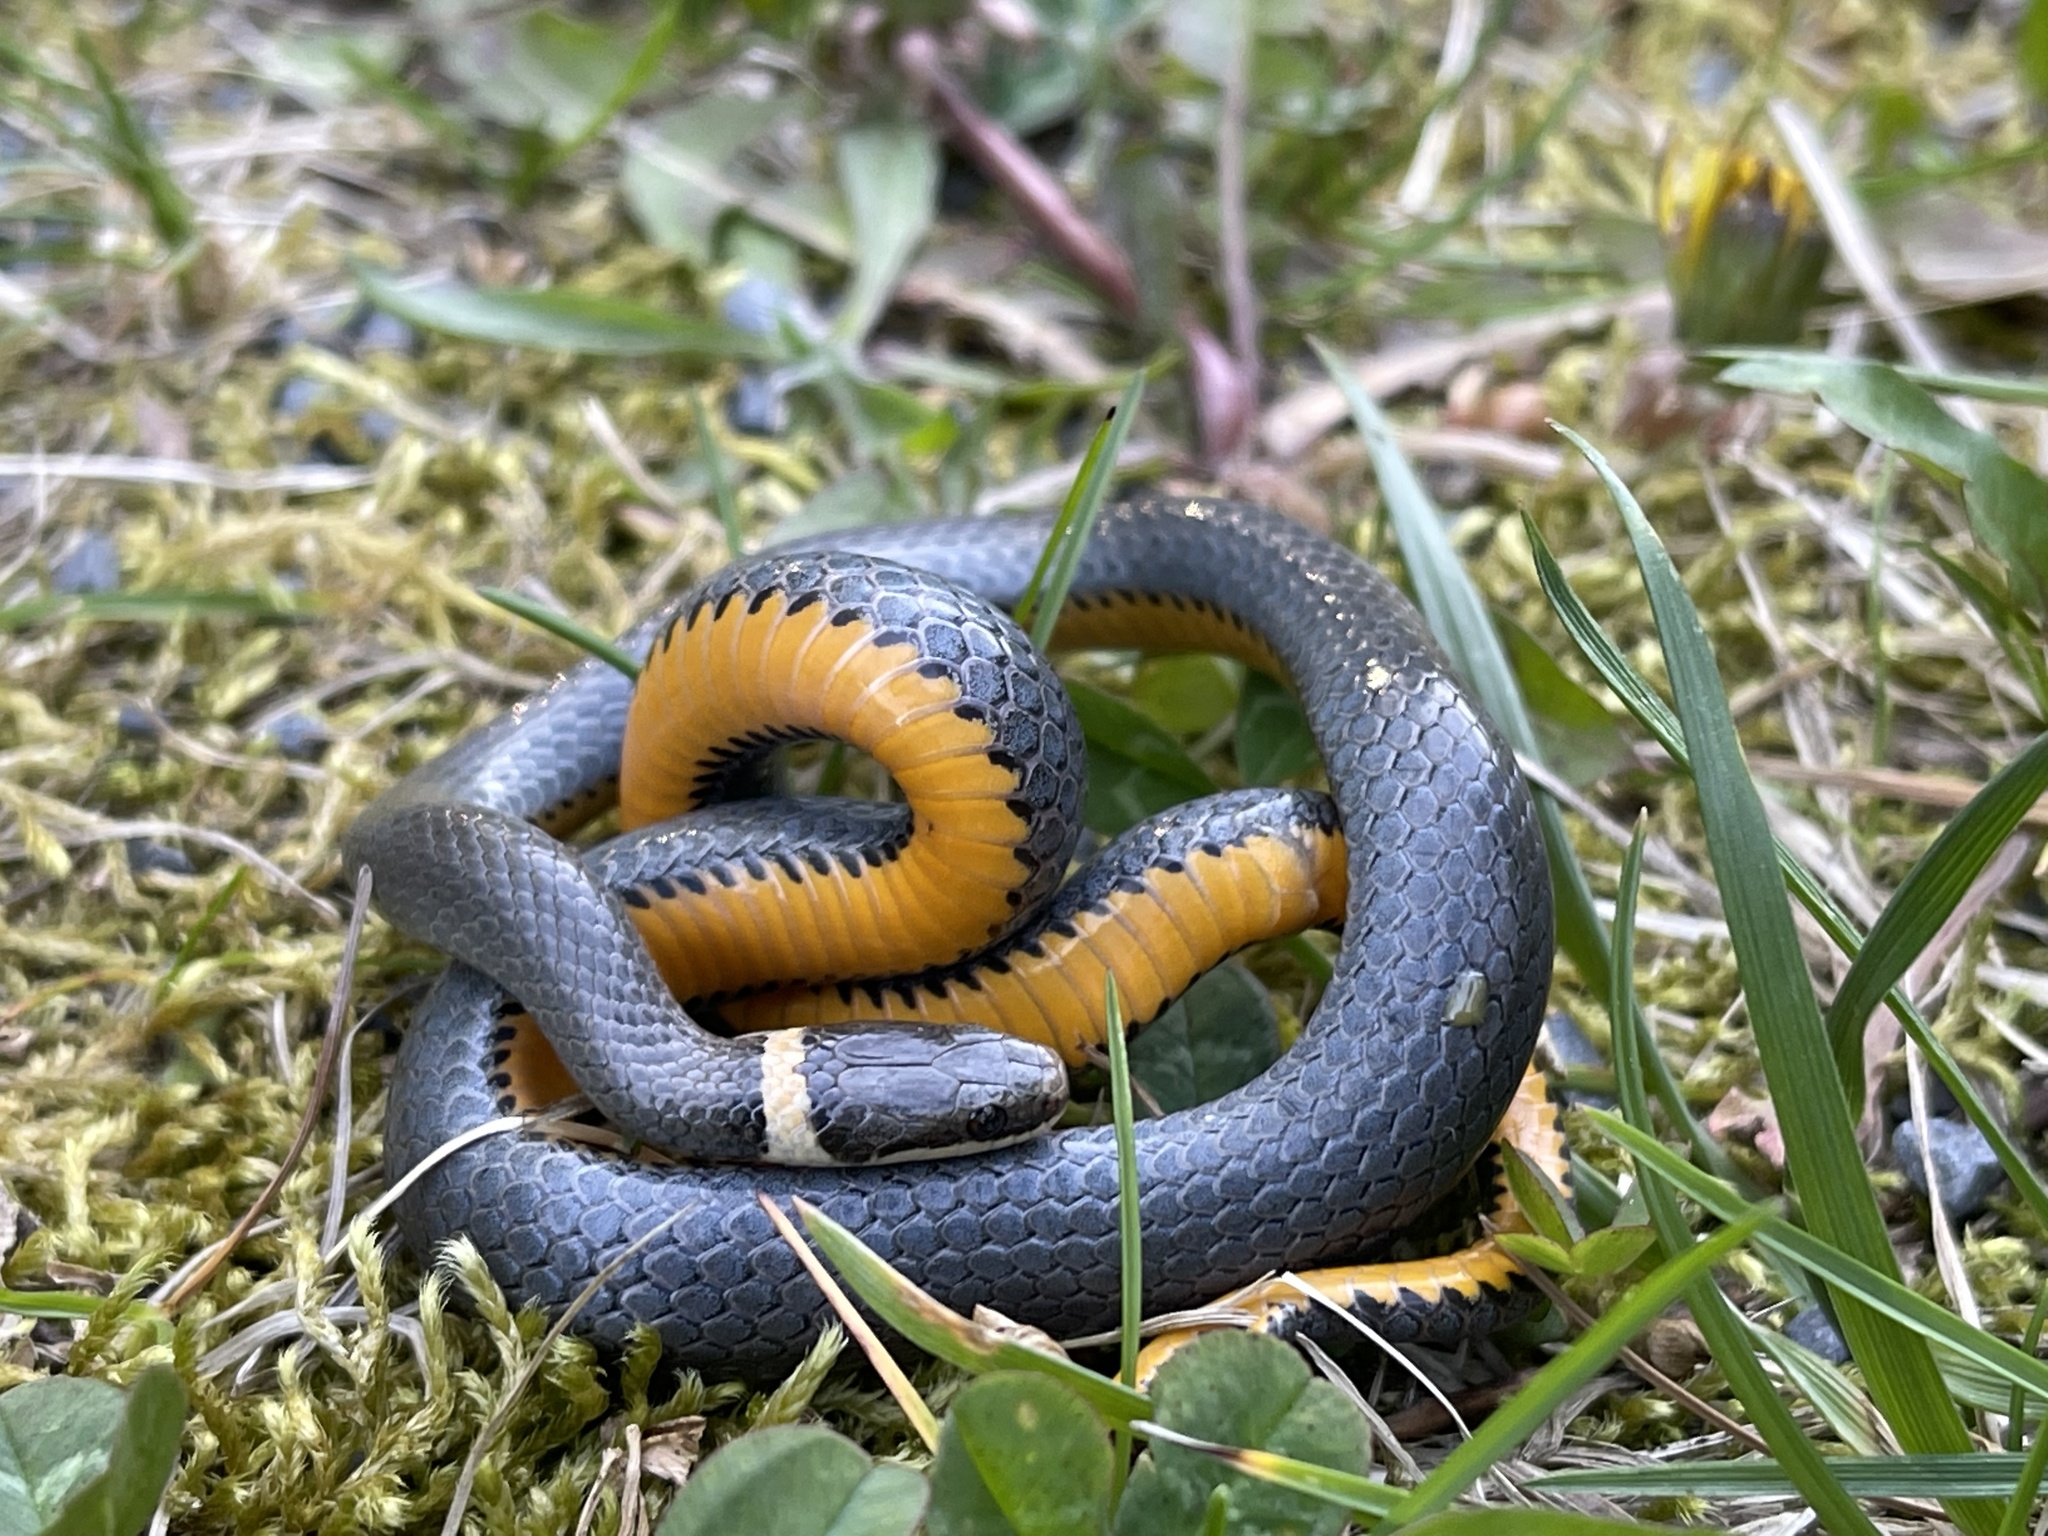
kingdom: Animalia
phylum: Chordata
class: Squamata
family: Colubridae
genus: Diadophis
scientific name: Diadophis punctatus
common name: Ringneck snake
